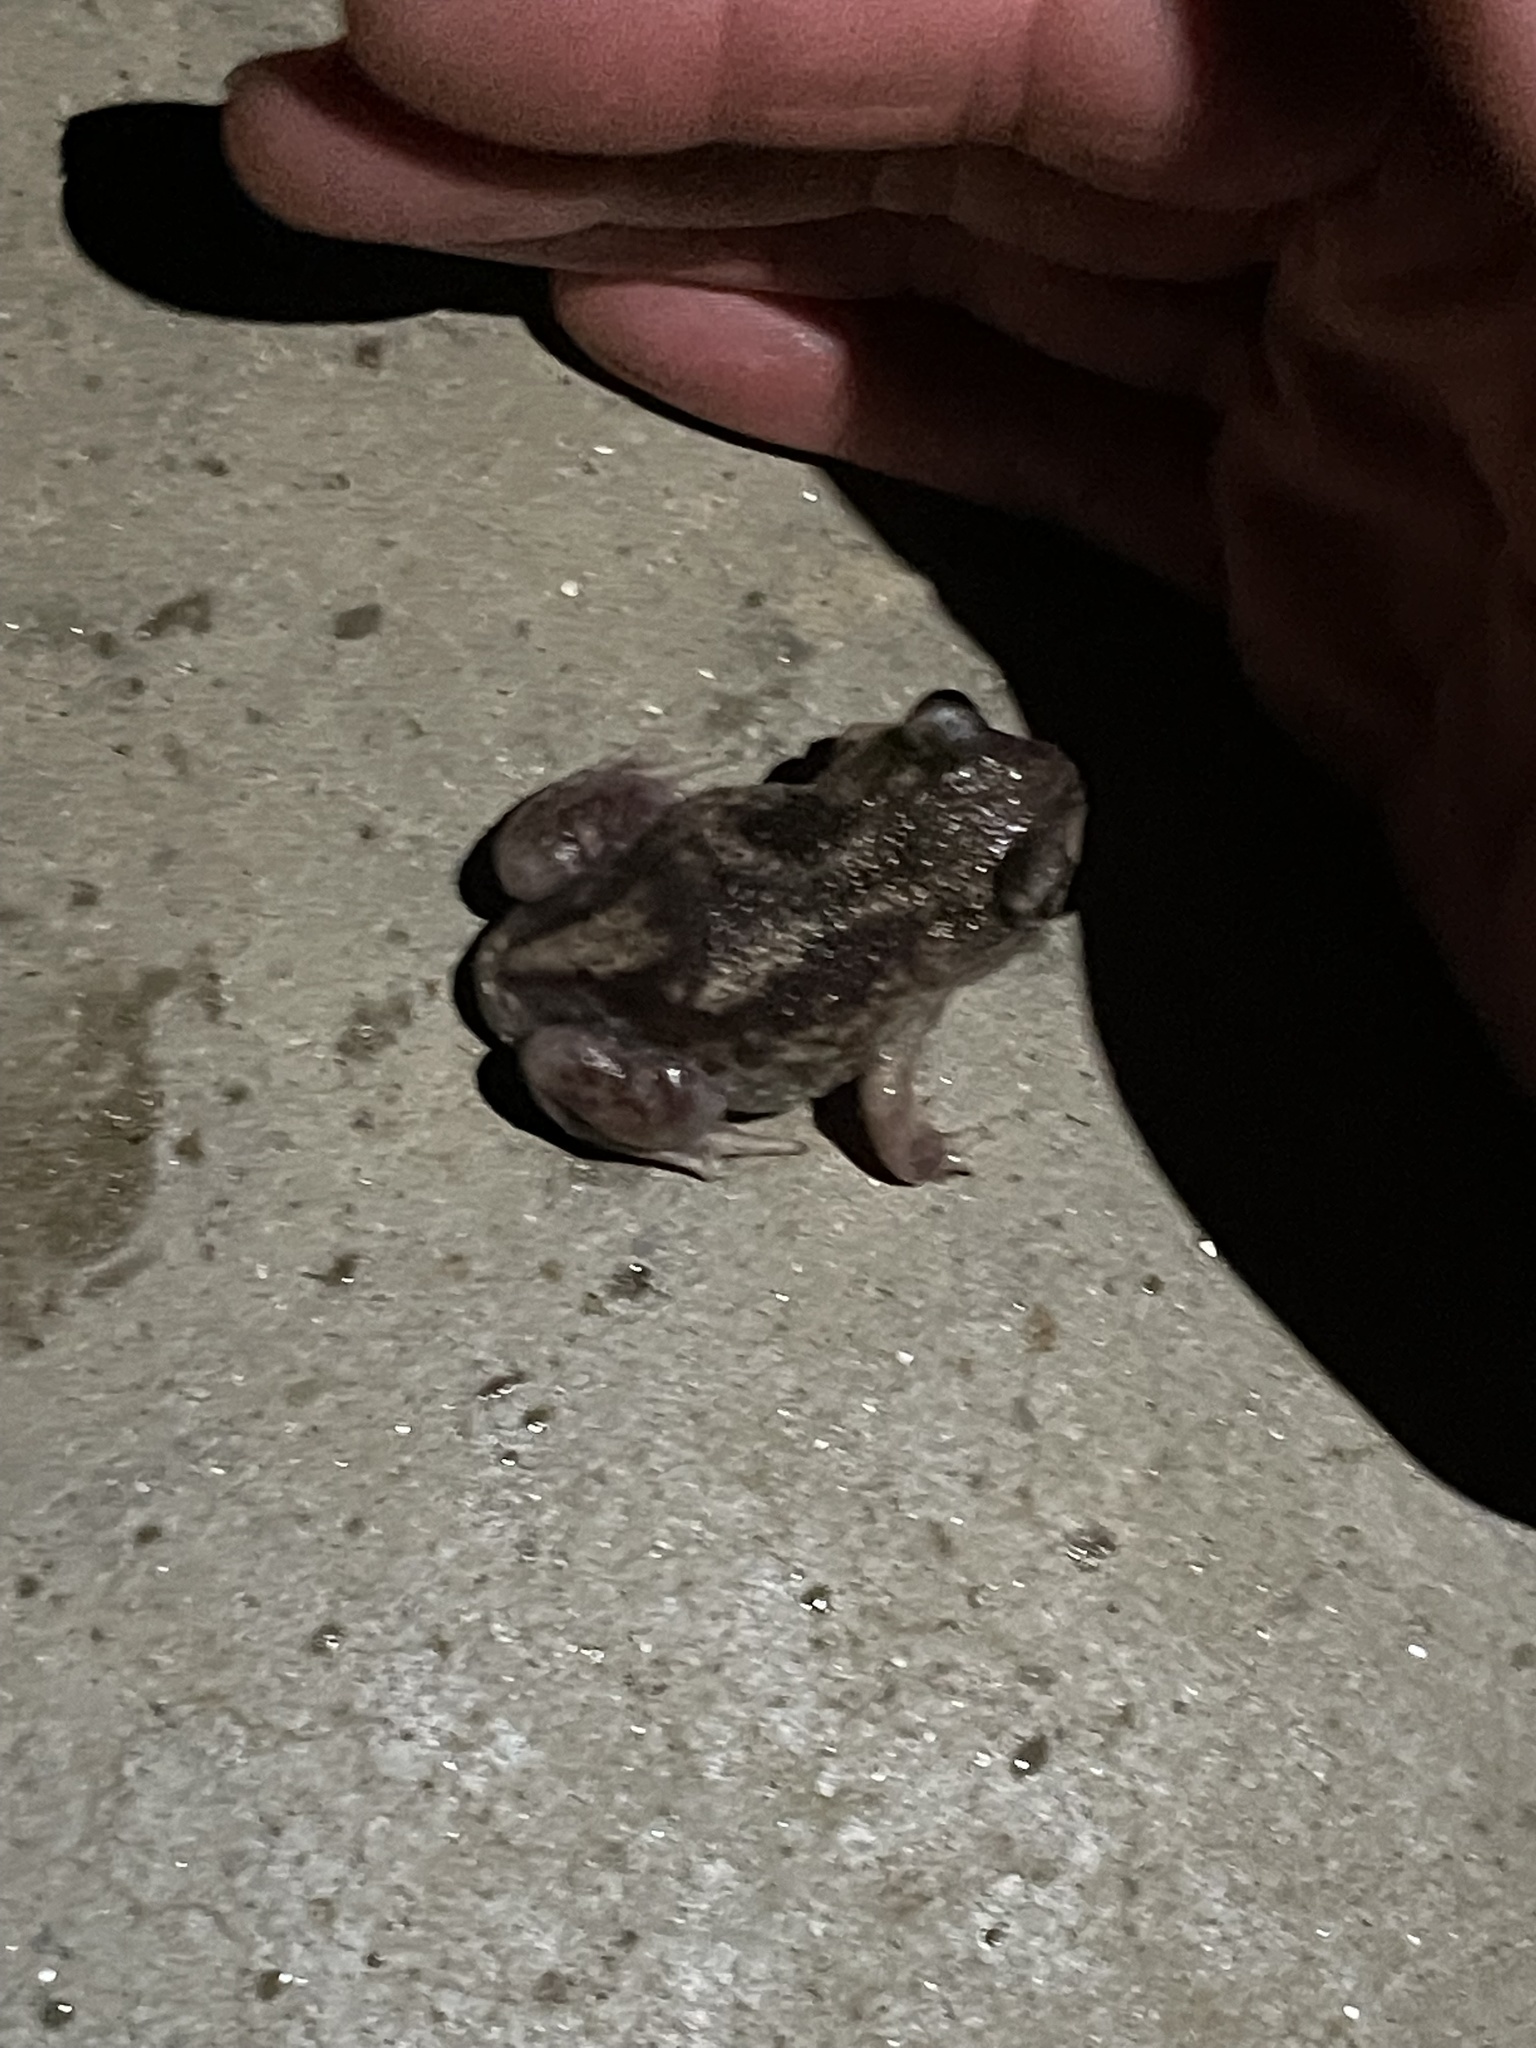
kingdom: Animalia
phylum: Chordata
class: Amphibia
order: Anura
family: Scaphiopodidae
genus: Scaphiopus
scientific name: Scaphiopus holbrookii
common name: Eastern spadefoot toad
